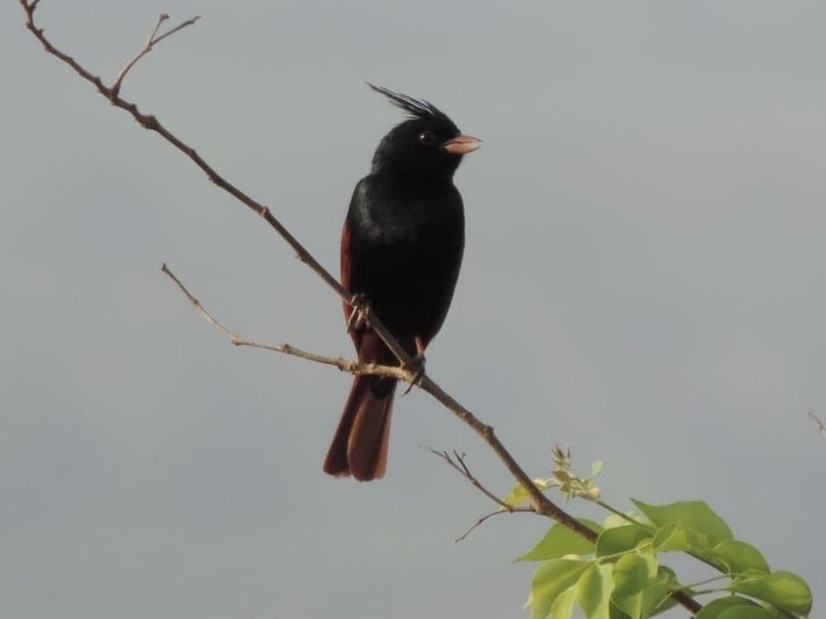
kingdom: Animalia
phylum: Chordata
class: Aves
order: Passeriformes
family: Emberizidae
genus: Emberiza
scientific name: Emberiza lathami
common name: Crested bunting
